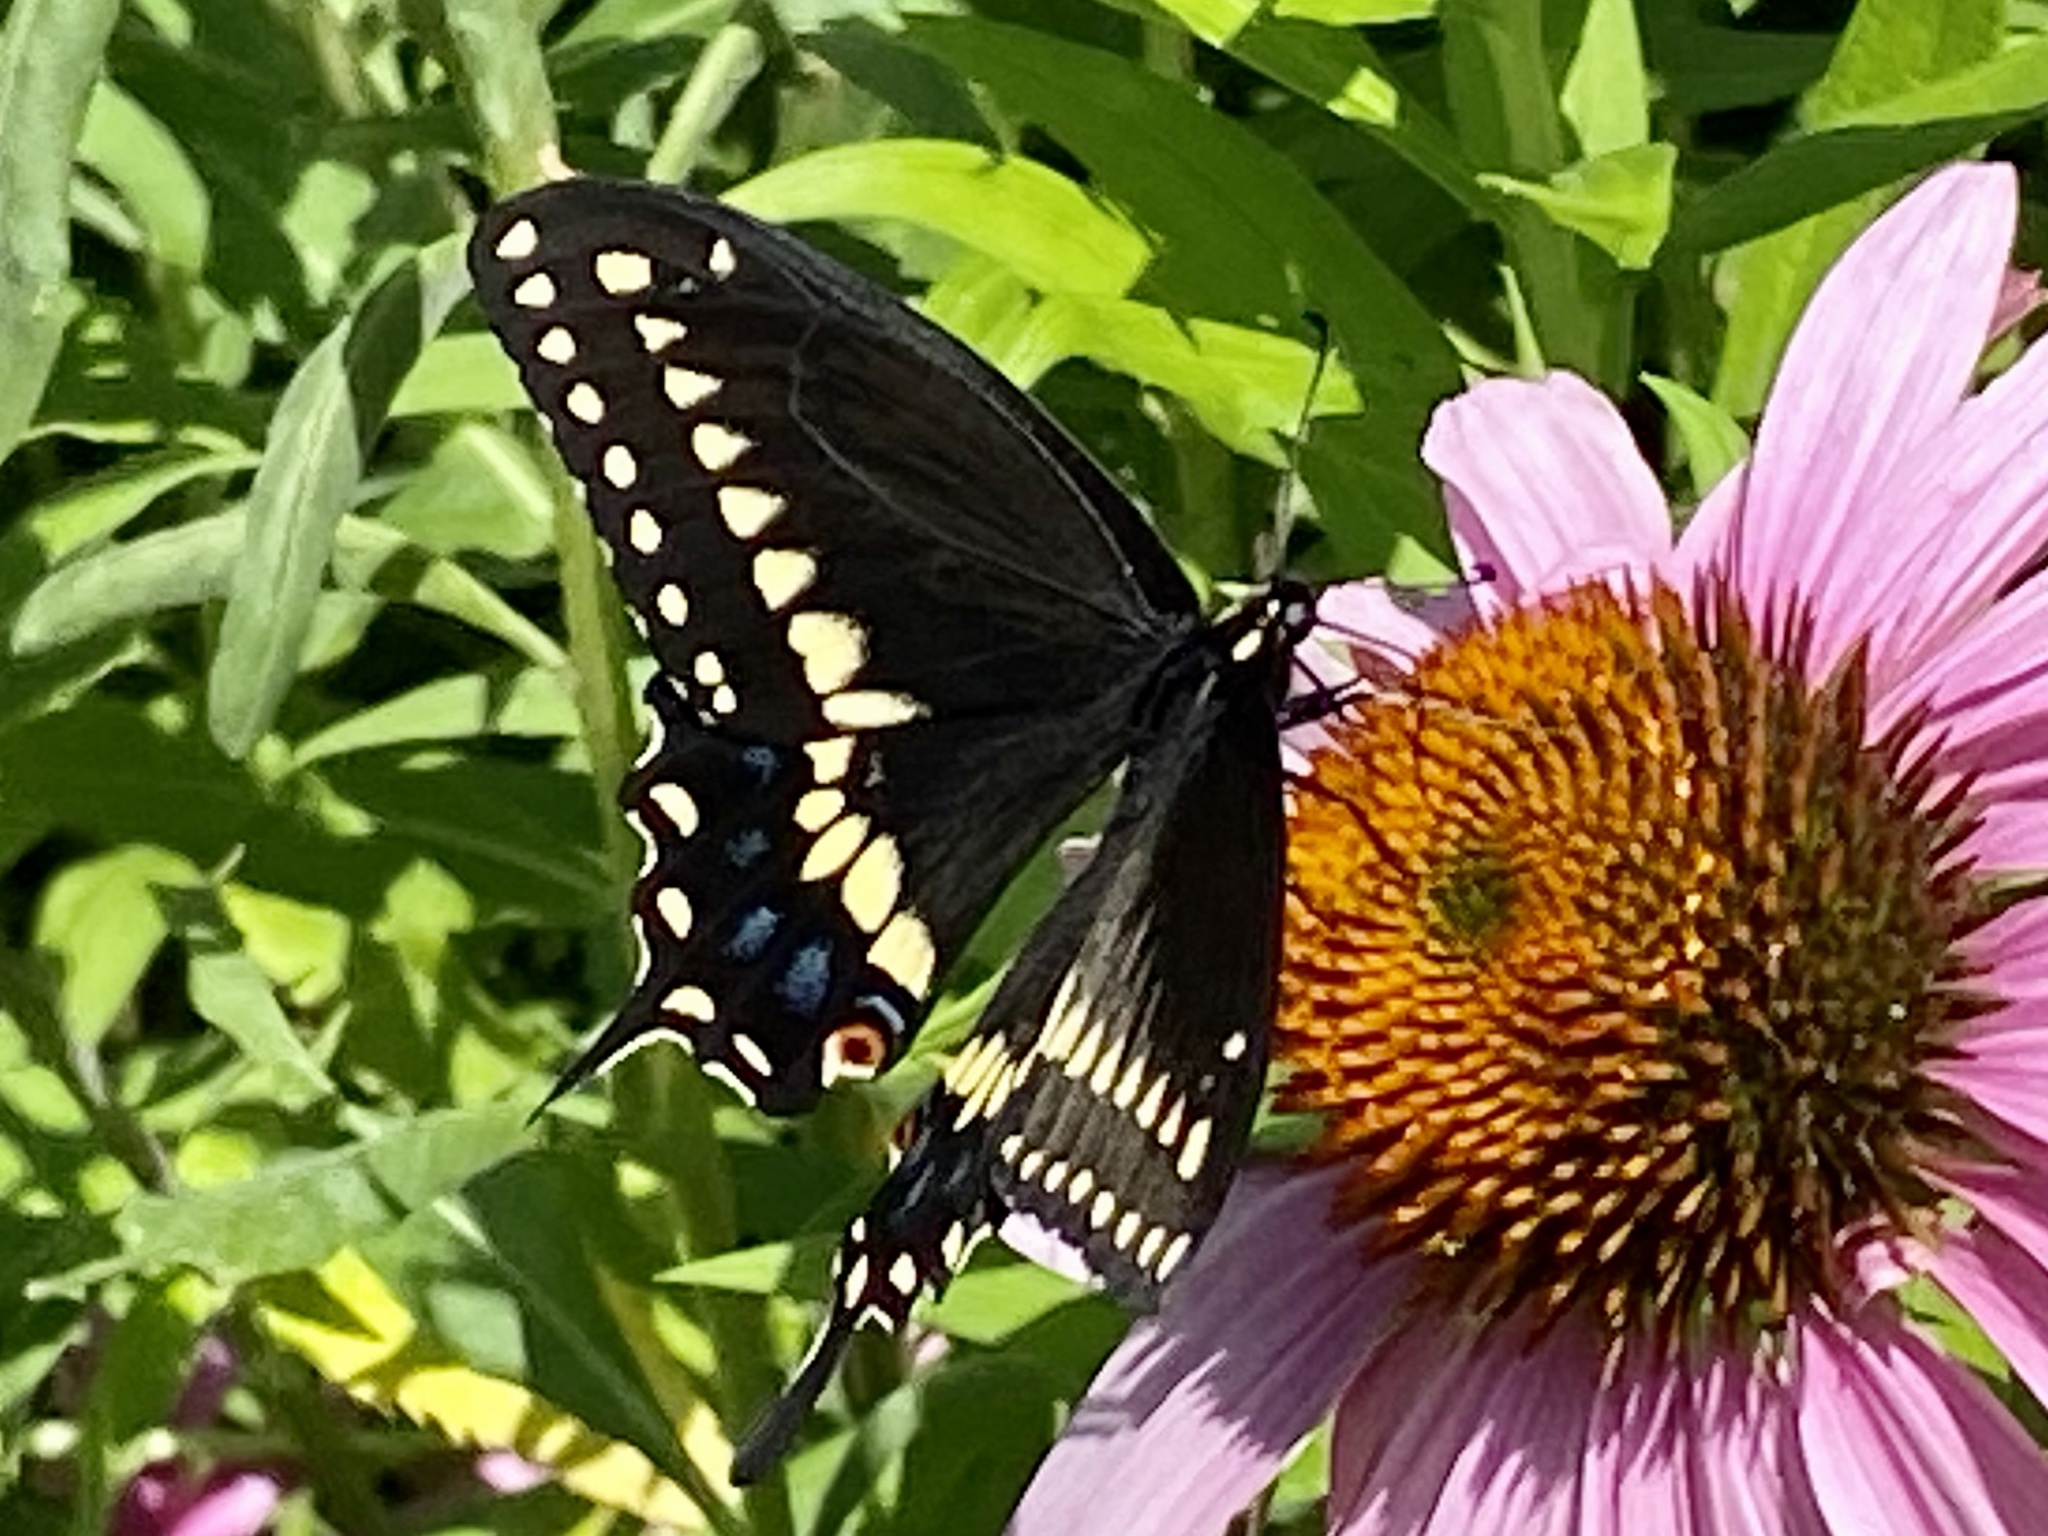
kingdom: Animalia
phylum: Arthropoda
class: Insecta
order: Lepidoptera
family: Papilionidae
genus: Papilio
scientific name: Papilio polyxenes
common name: Black swallowtail
